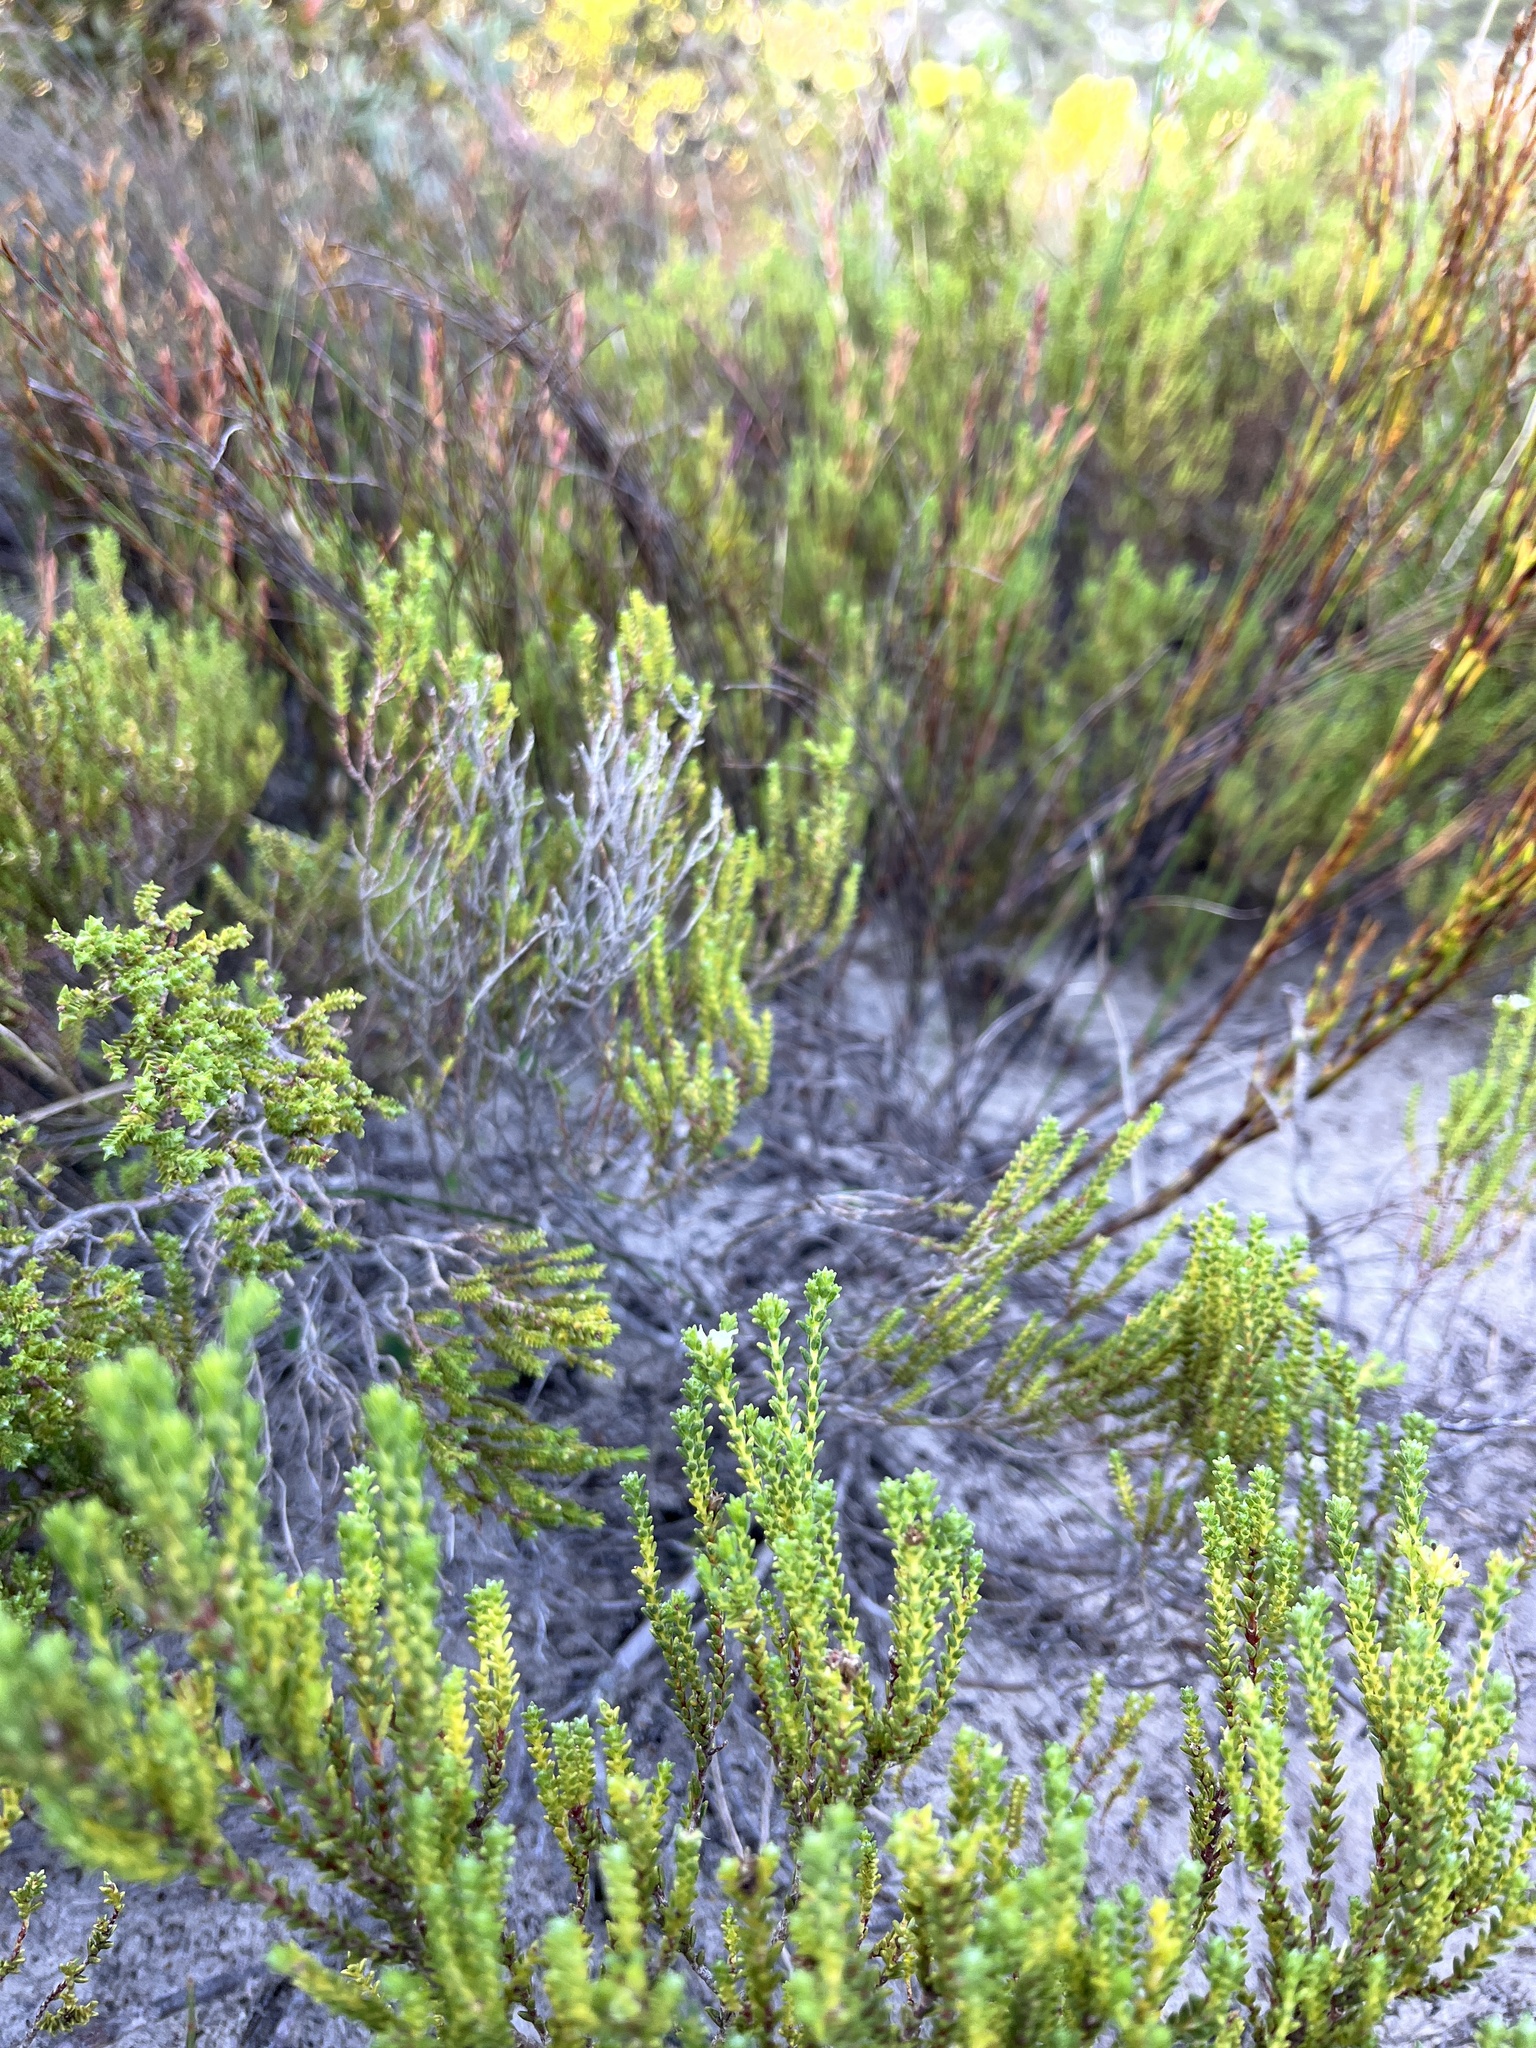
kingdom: Plantae
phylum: Tracheophyta
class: Magnoliopsida
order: Sapindales
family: Rutaceae
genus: Euchaetis
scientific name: Euchaetis burchellii
